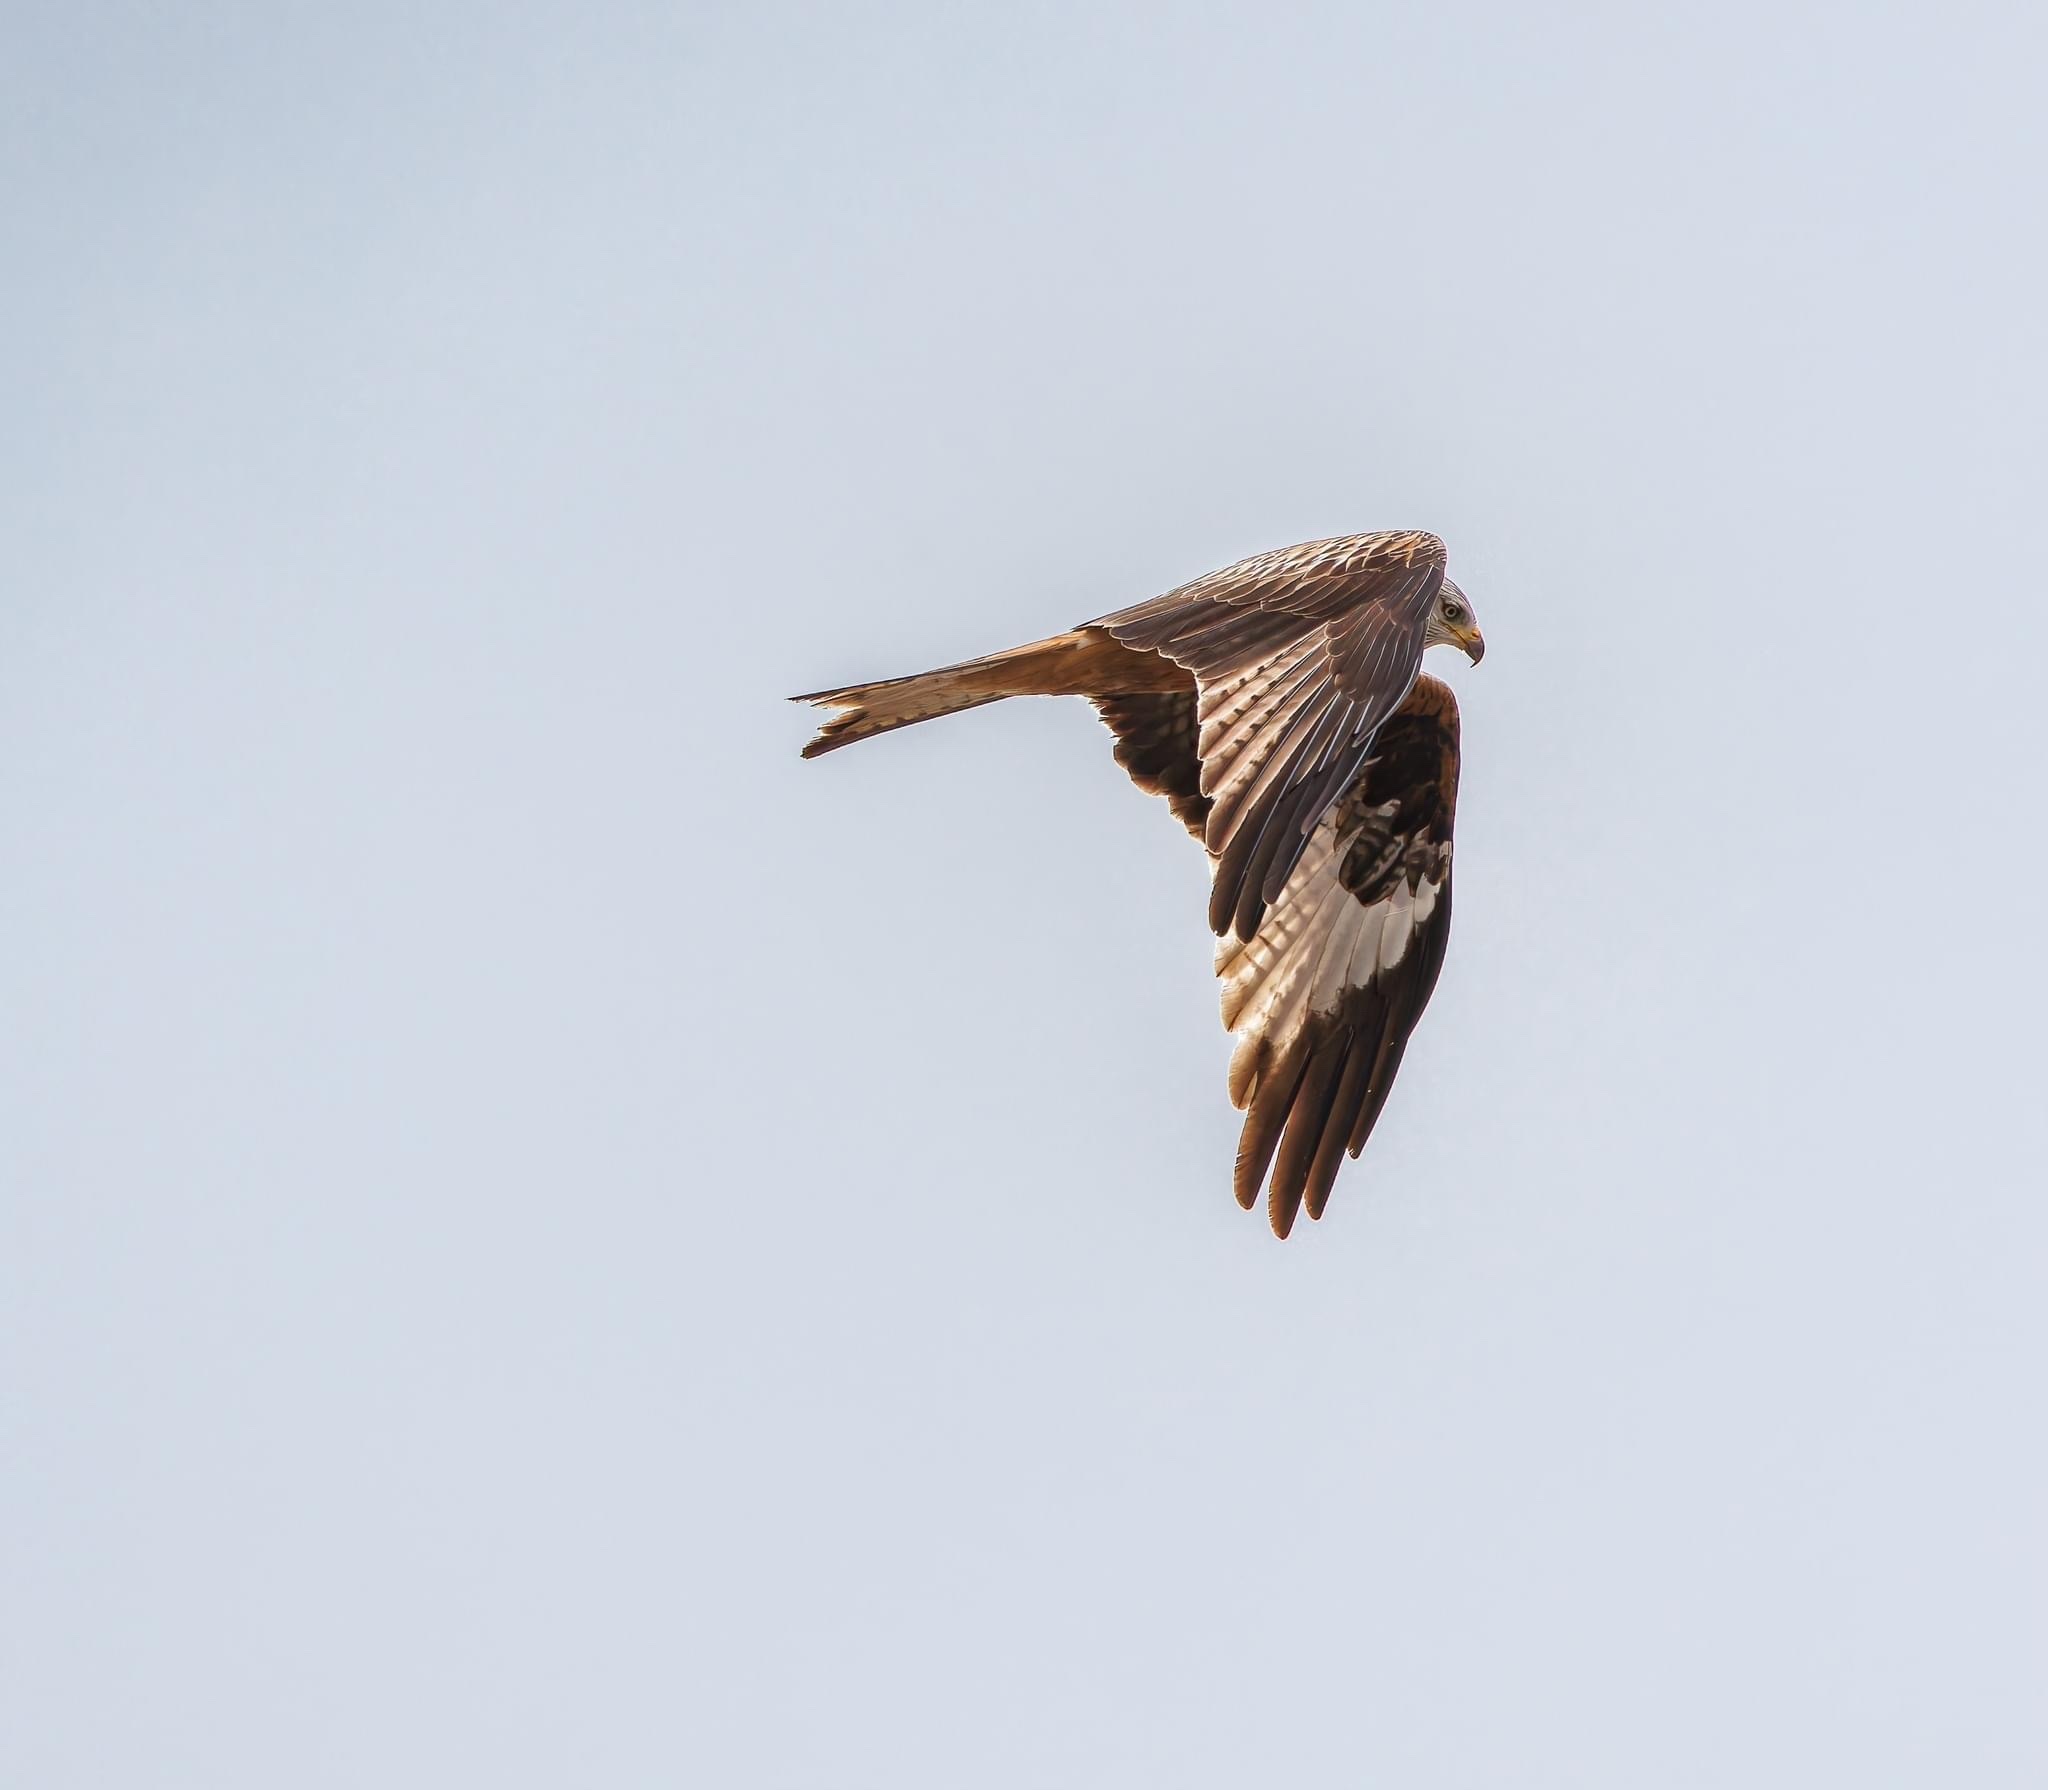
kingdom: Animalia
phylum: Chordata
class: Aves
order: Accipitriformes
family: Accipitridae
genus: Milvus
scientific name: Milvus milvus
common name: Red kite
